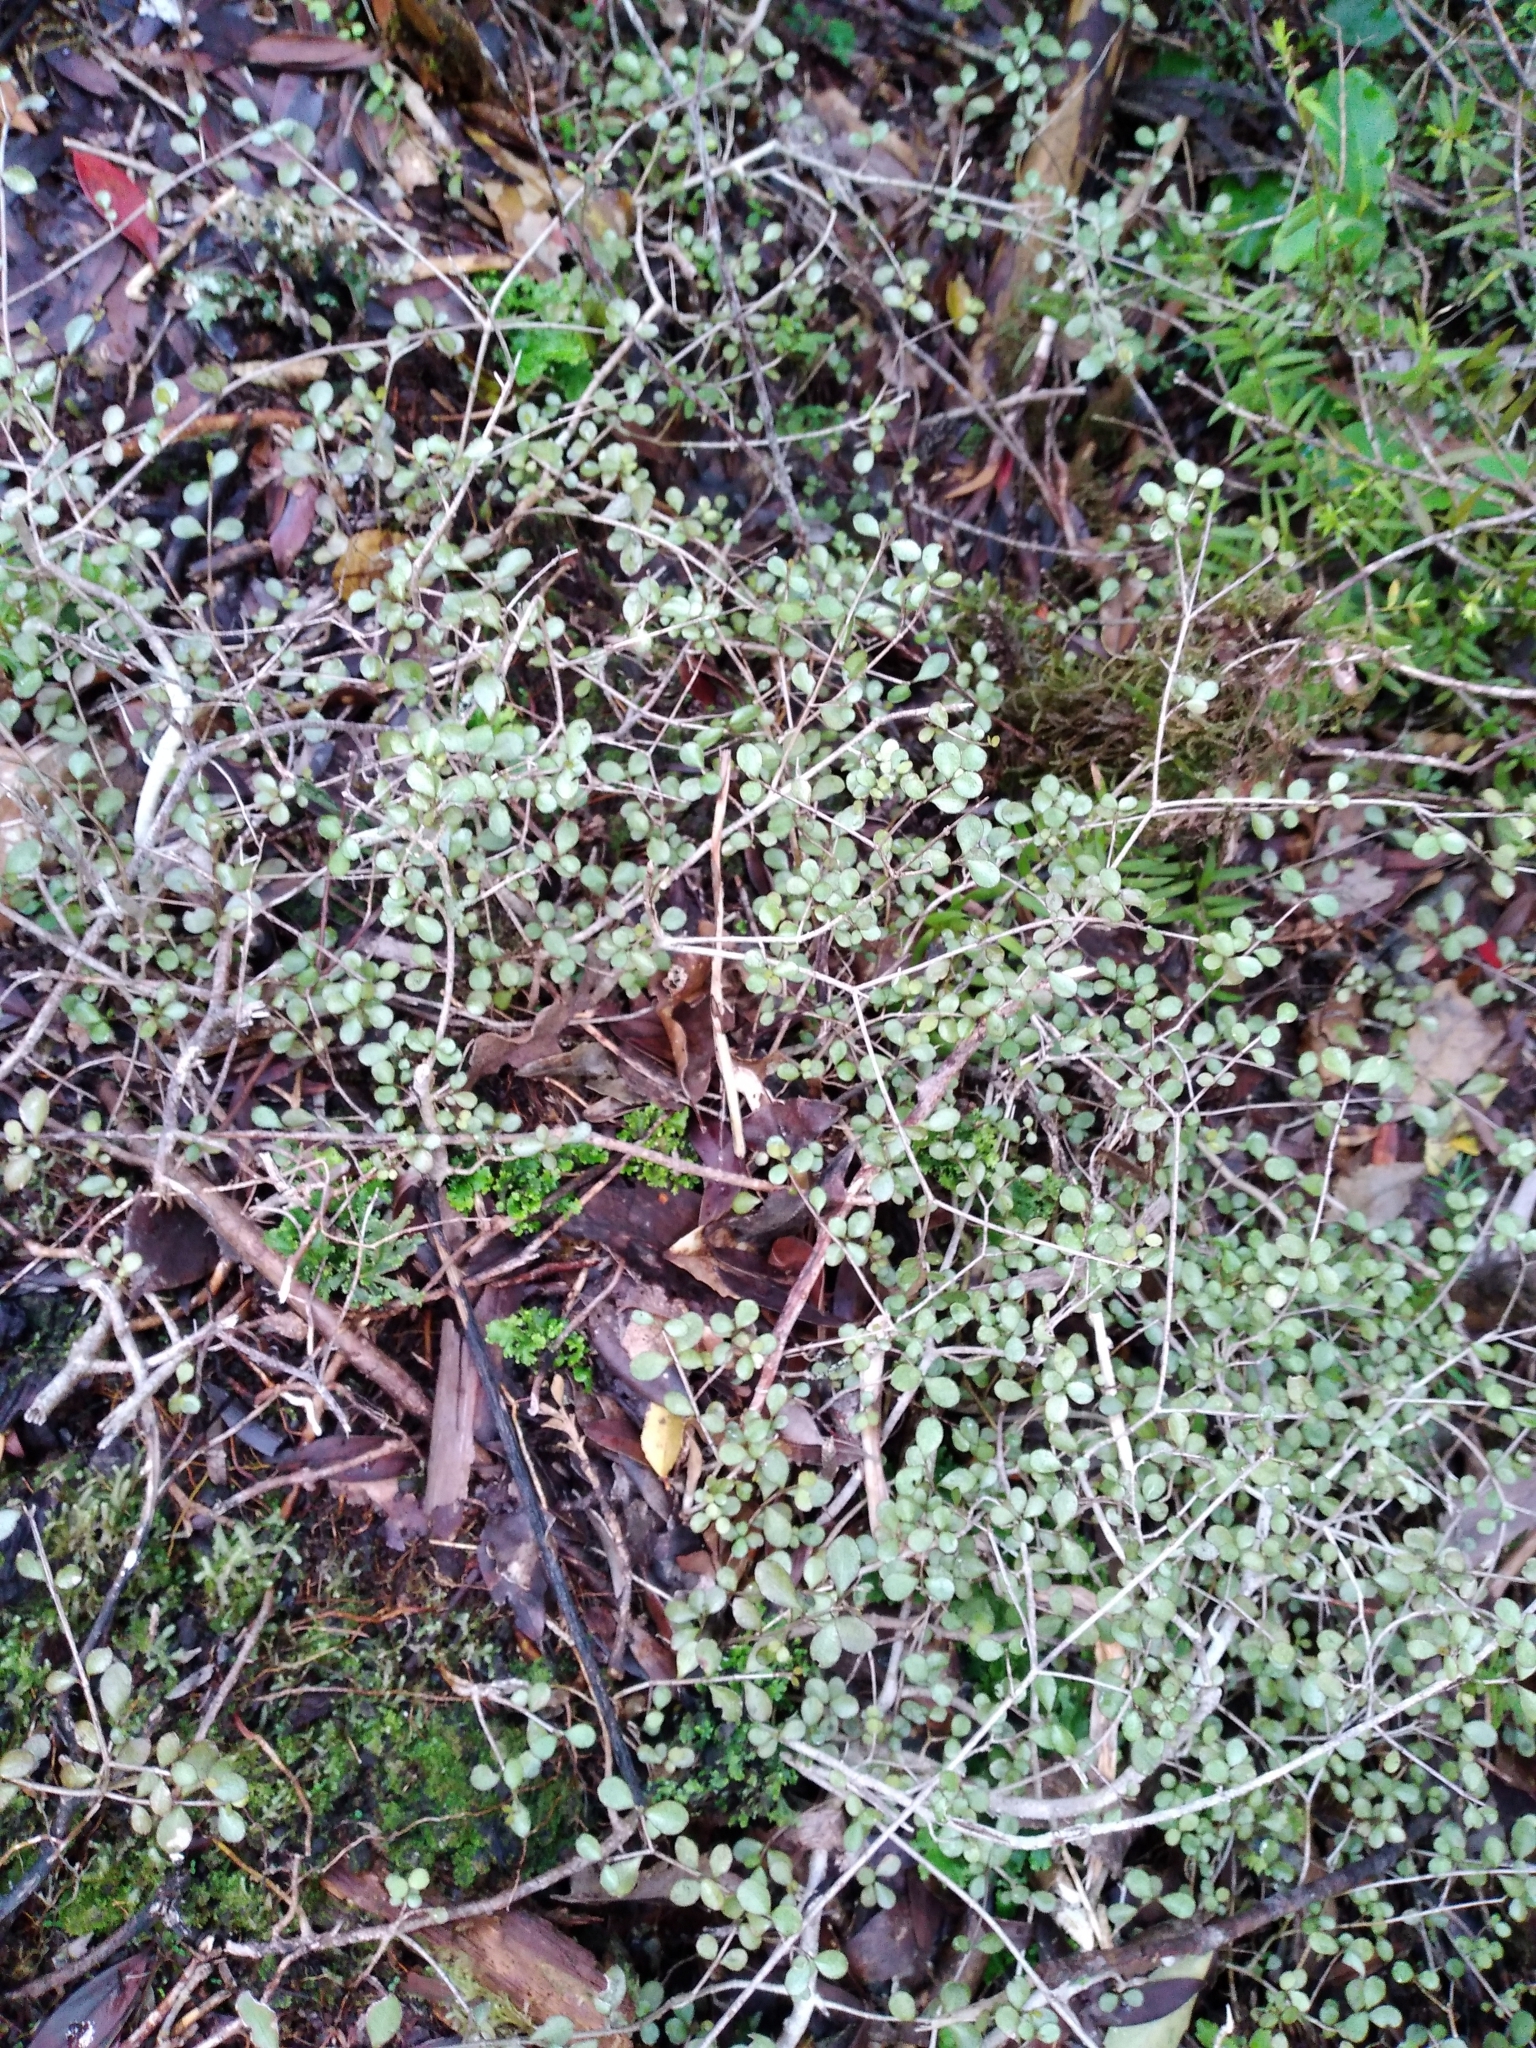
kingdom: Plantae
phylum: Tracheophyta
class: Magnoliopsida
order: Myrtales
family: Myrtaceae
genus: Neomyrtus
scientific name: Neomyrtus pedunculata
